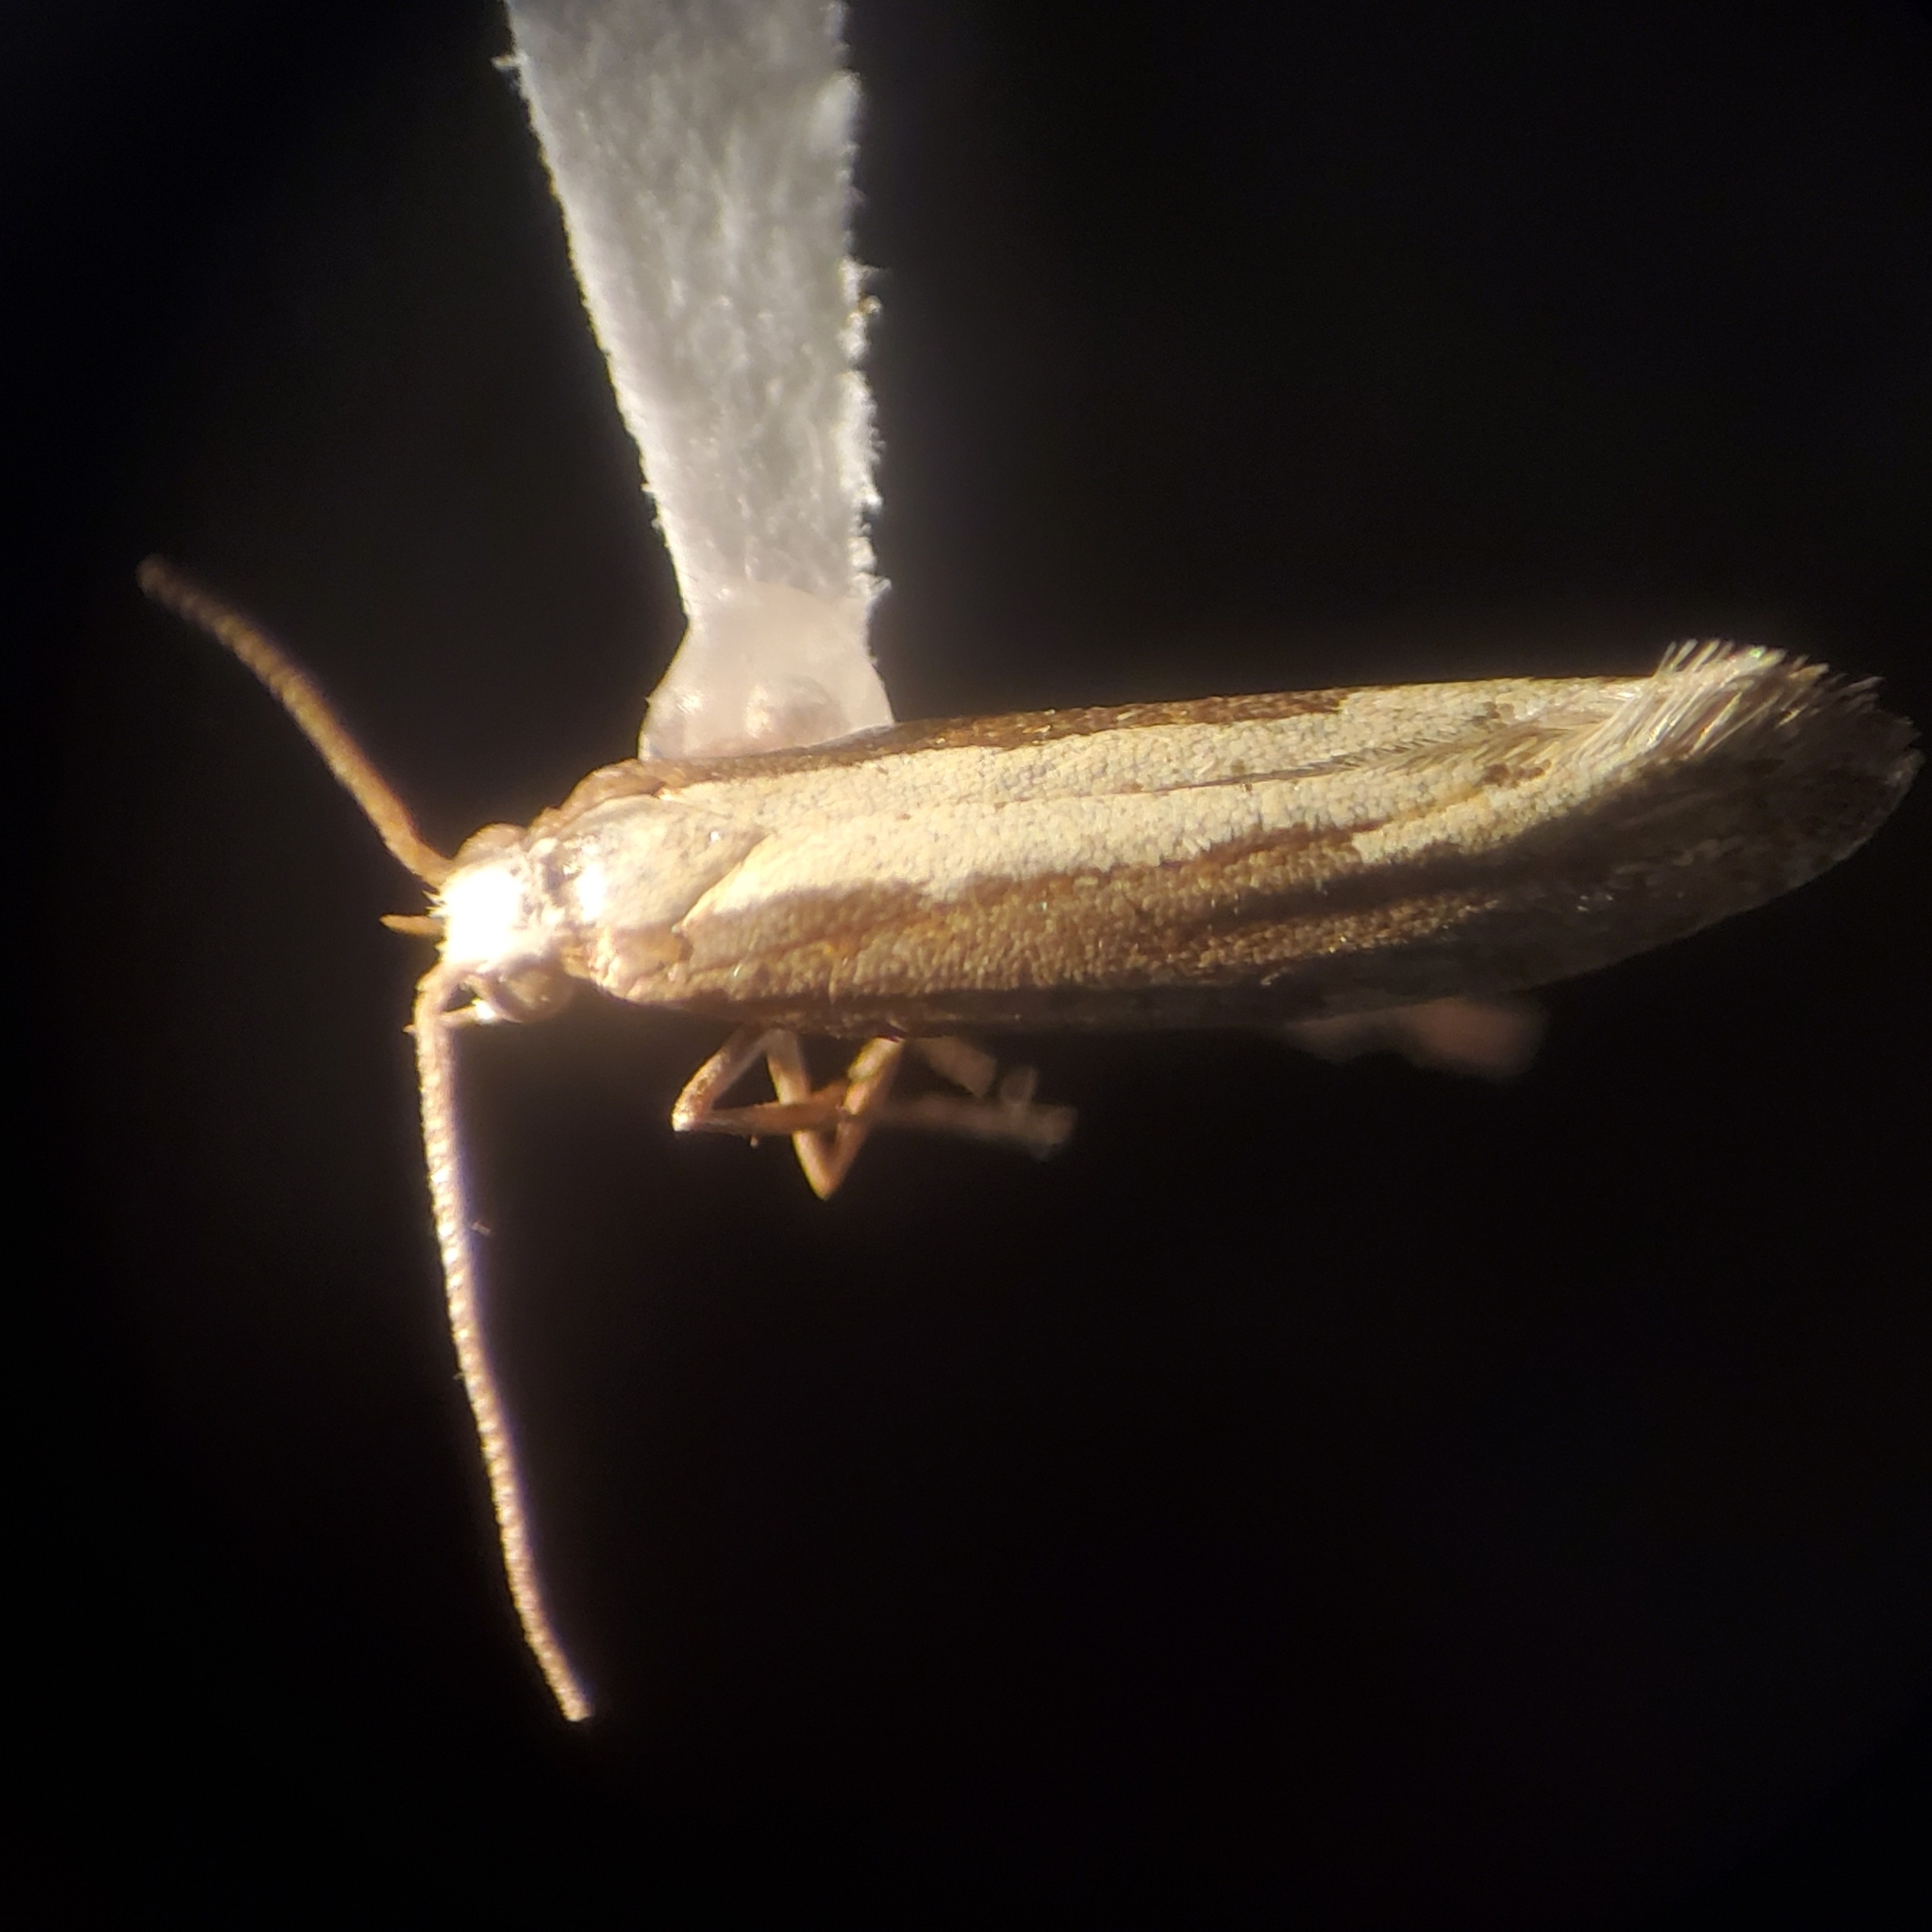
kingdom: Animalia
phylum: Arthropoda
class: Insecta
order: Lepidoptera
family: Plutellidae
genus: Plutella
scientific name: Plutella xylostella
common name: Diamond-back moth
